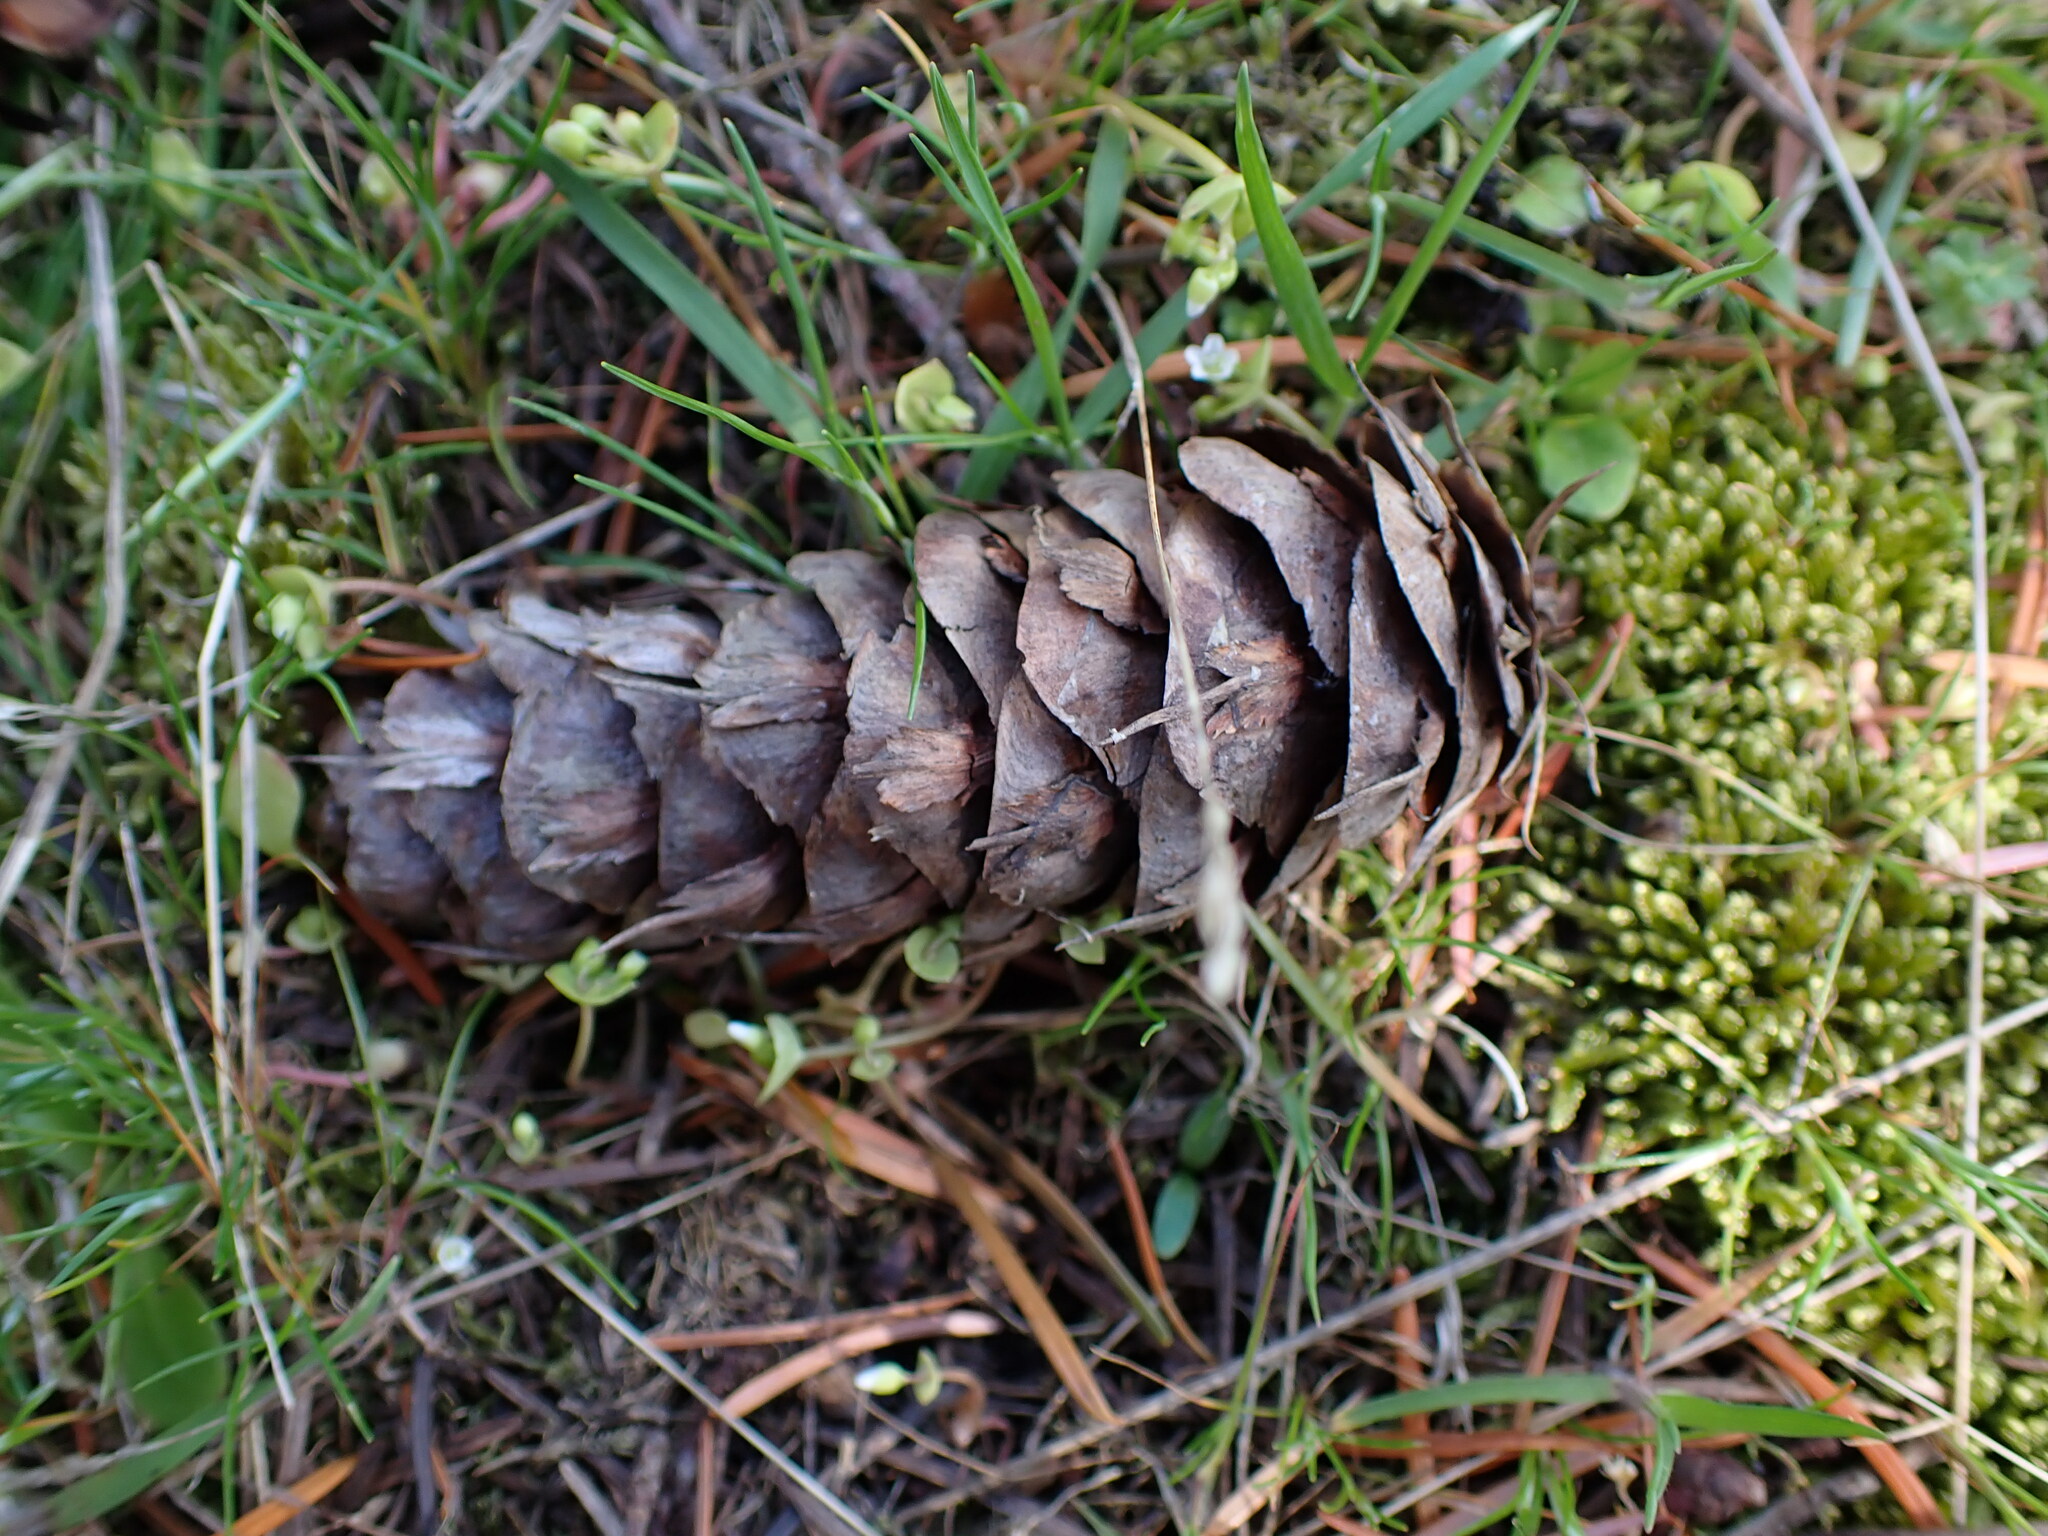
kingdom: Plantae
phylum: Tracheophyta
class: Pinopsida
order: Pinales
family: Pinaceae
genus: Pseudotsuga
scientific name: Pseudotsuga menziesii
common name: Douglas fir
